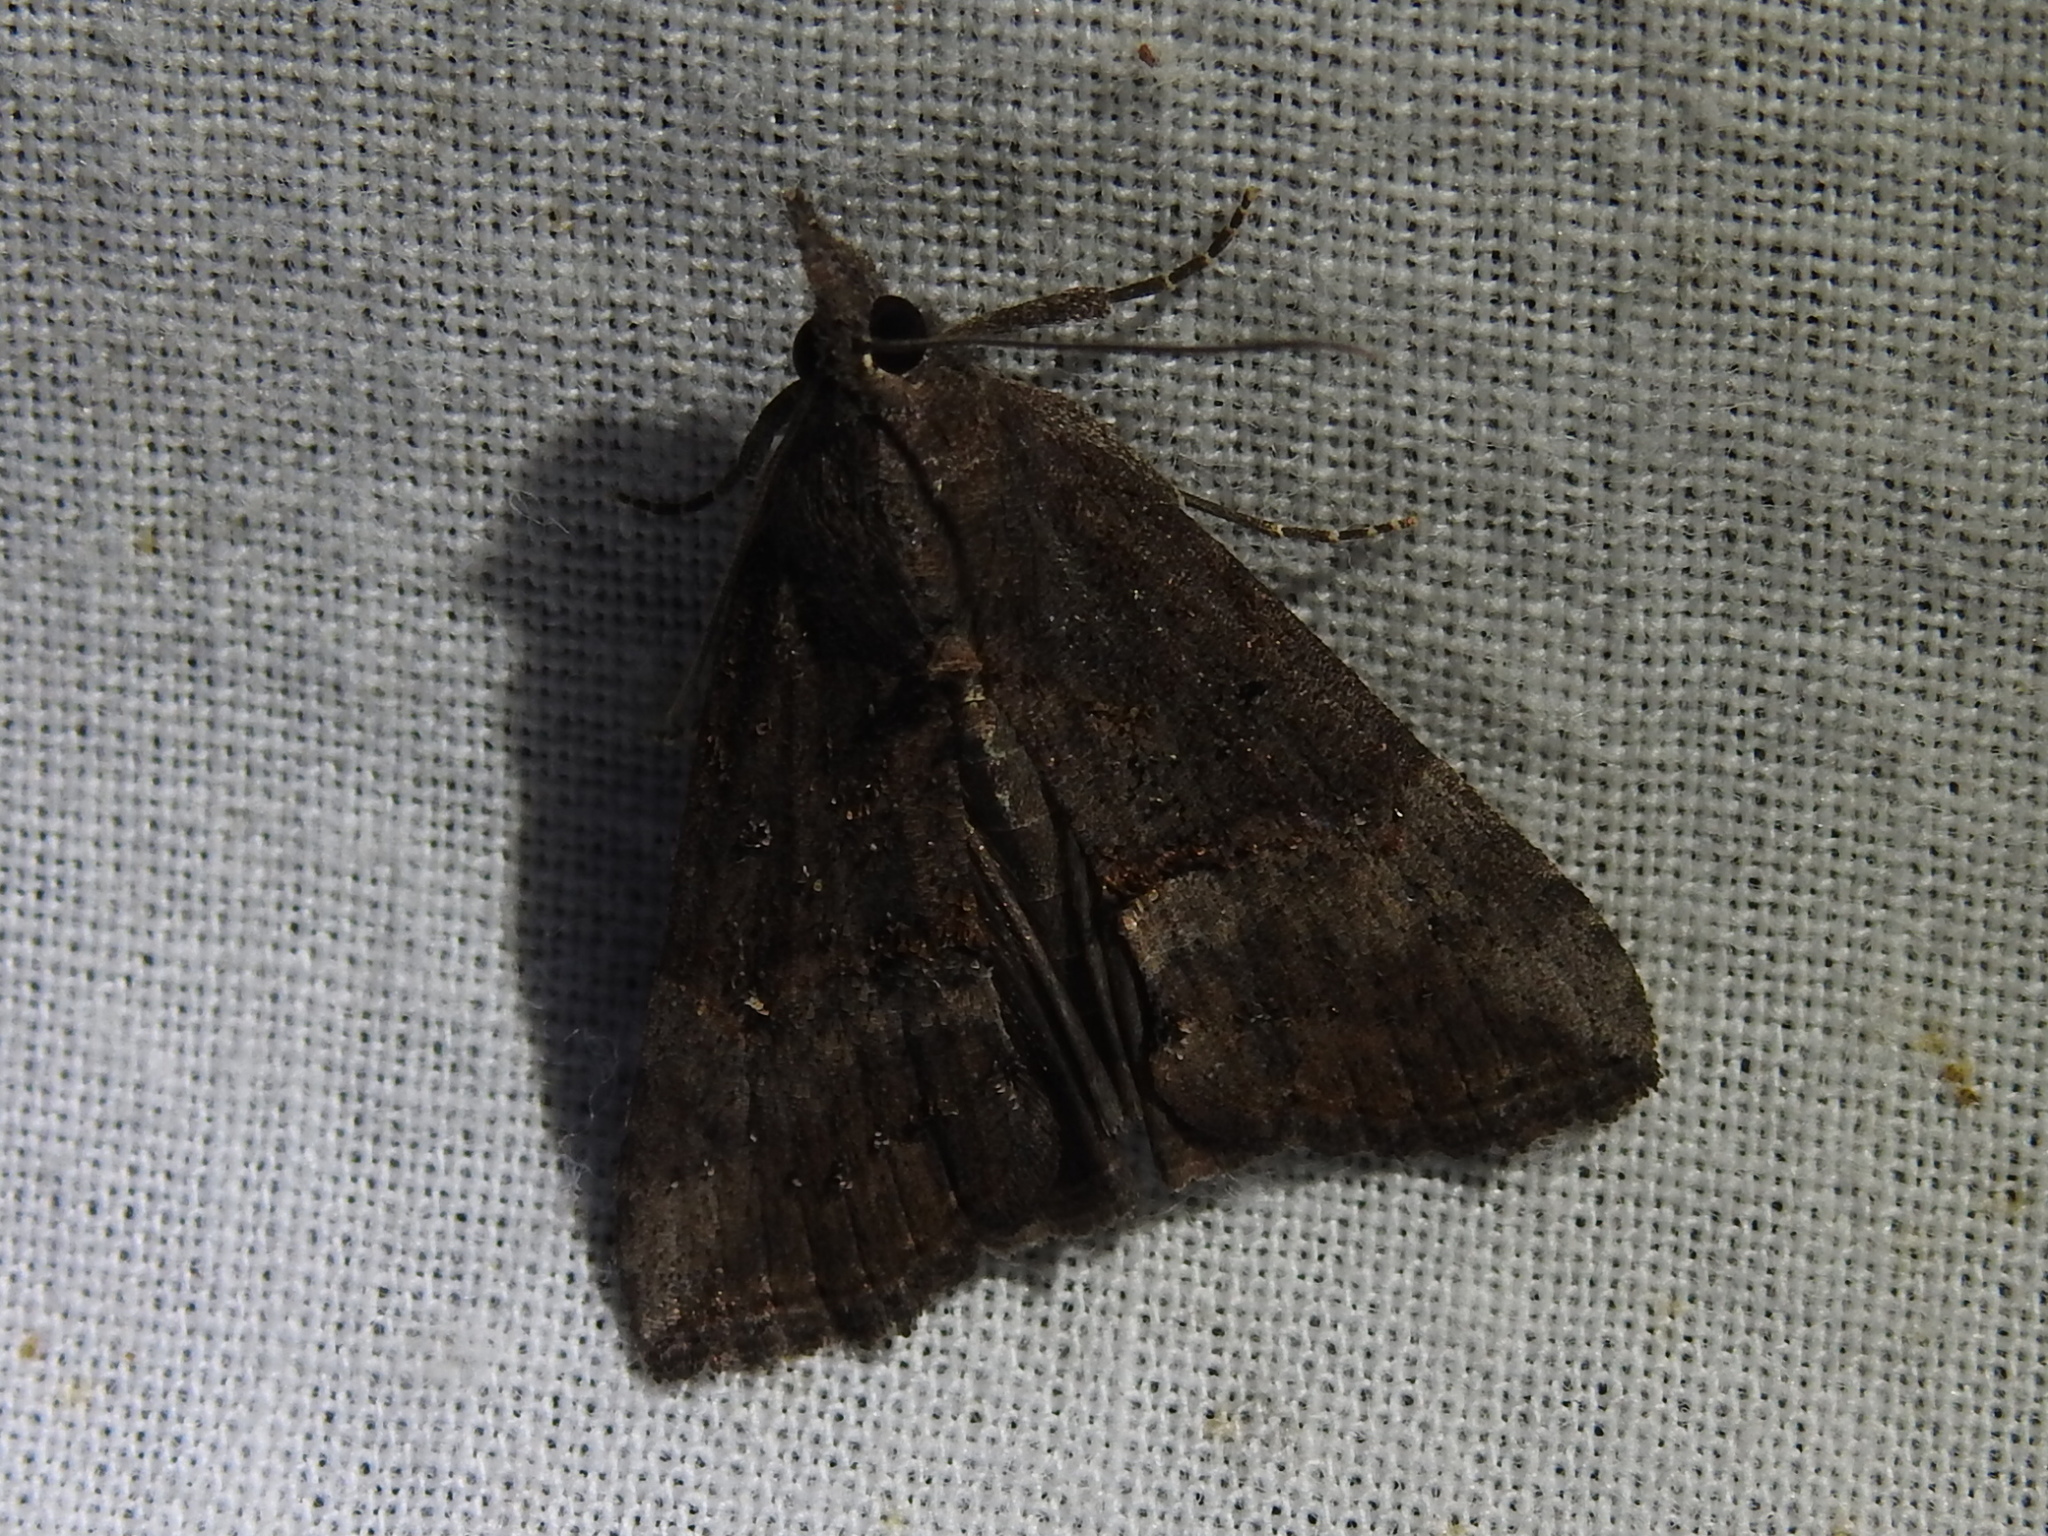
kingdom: Animalia
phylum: Arthropoda
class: Insecta
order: Lepidoptera
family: Erebidae
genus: Hypena
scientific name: Hypena scabra
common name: Green cloverworm
